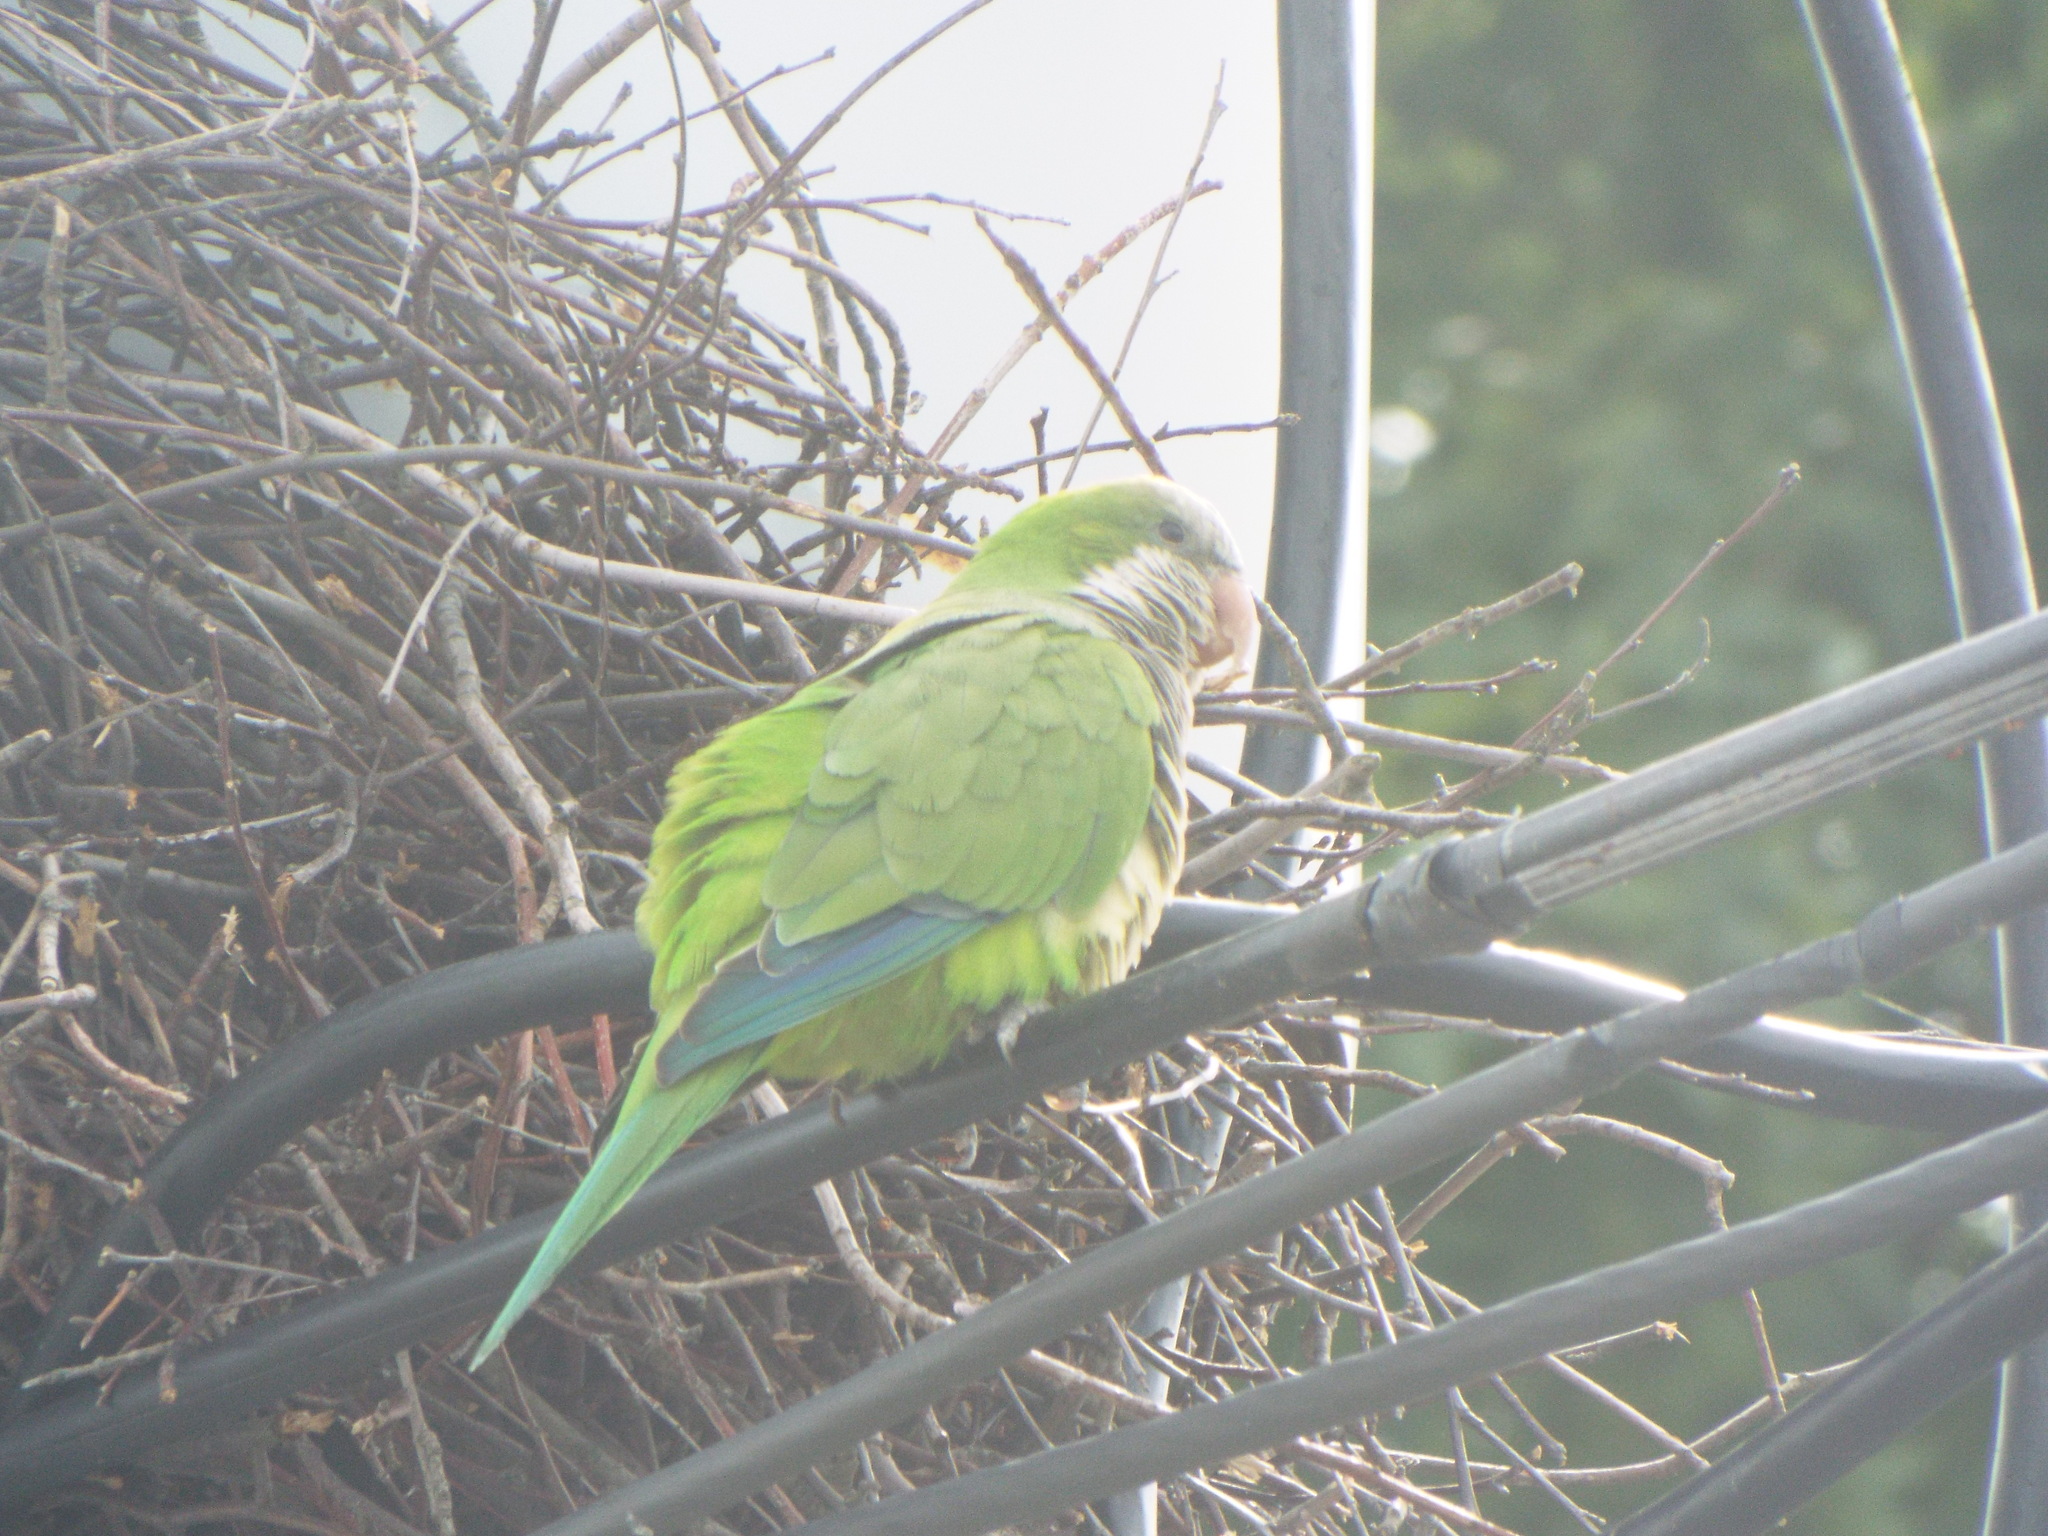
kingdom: Animalia
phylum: Chordata
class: Aves
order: Psittaciformes
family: Psittacidae
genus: Myiopsitta
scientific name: Myiopsitta monachus
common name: Monk parakeet
